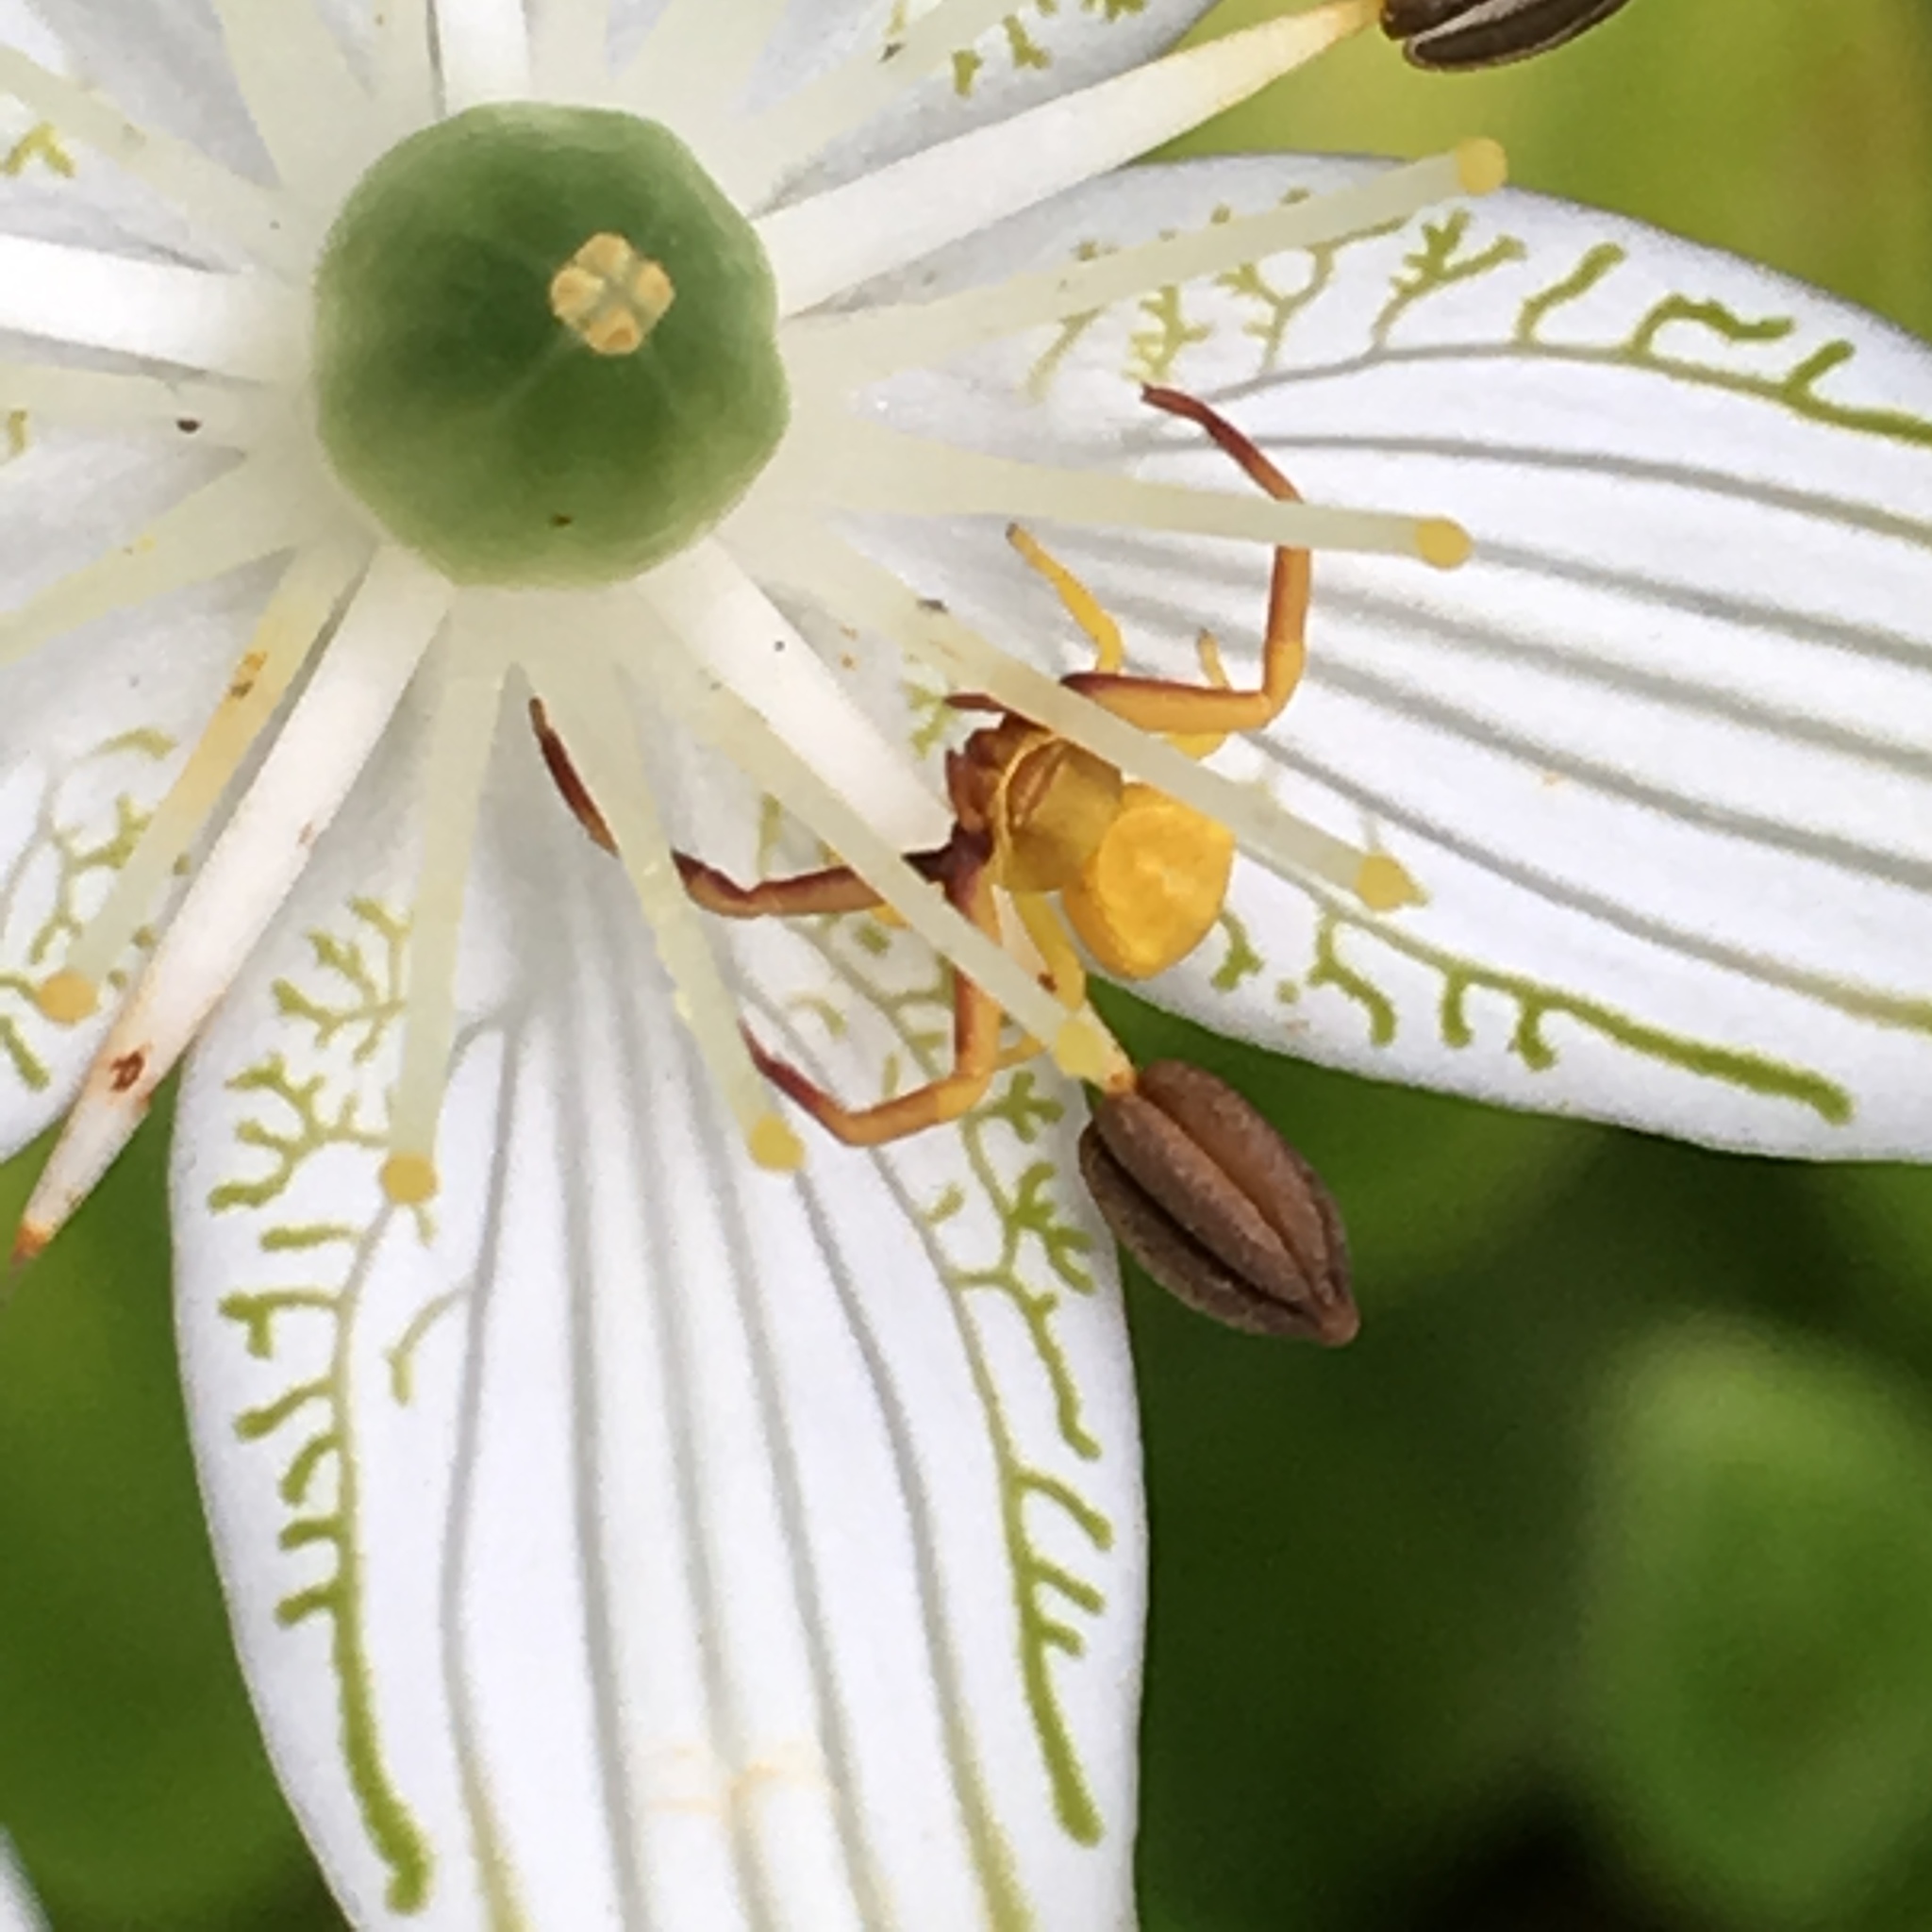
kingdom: Animalia
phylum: Arthropoda
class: Arachnida
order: Araneae
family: Thomisidae
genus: Misumenoides
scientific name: Misumenoides formosipes
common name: White-banded crab spider
